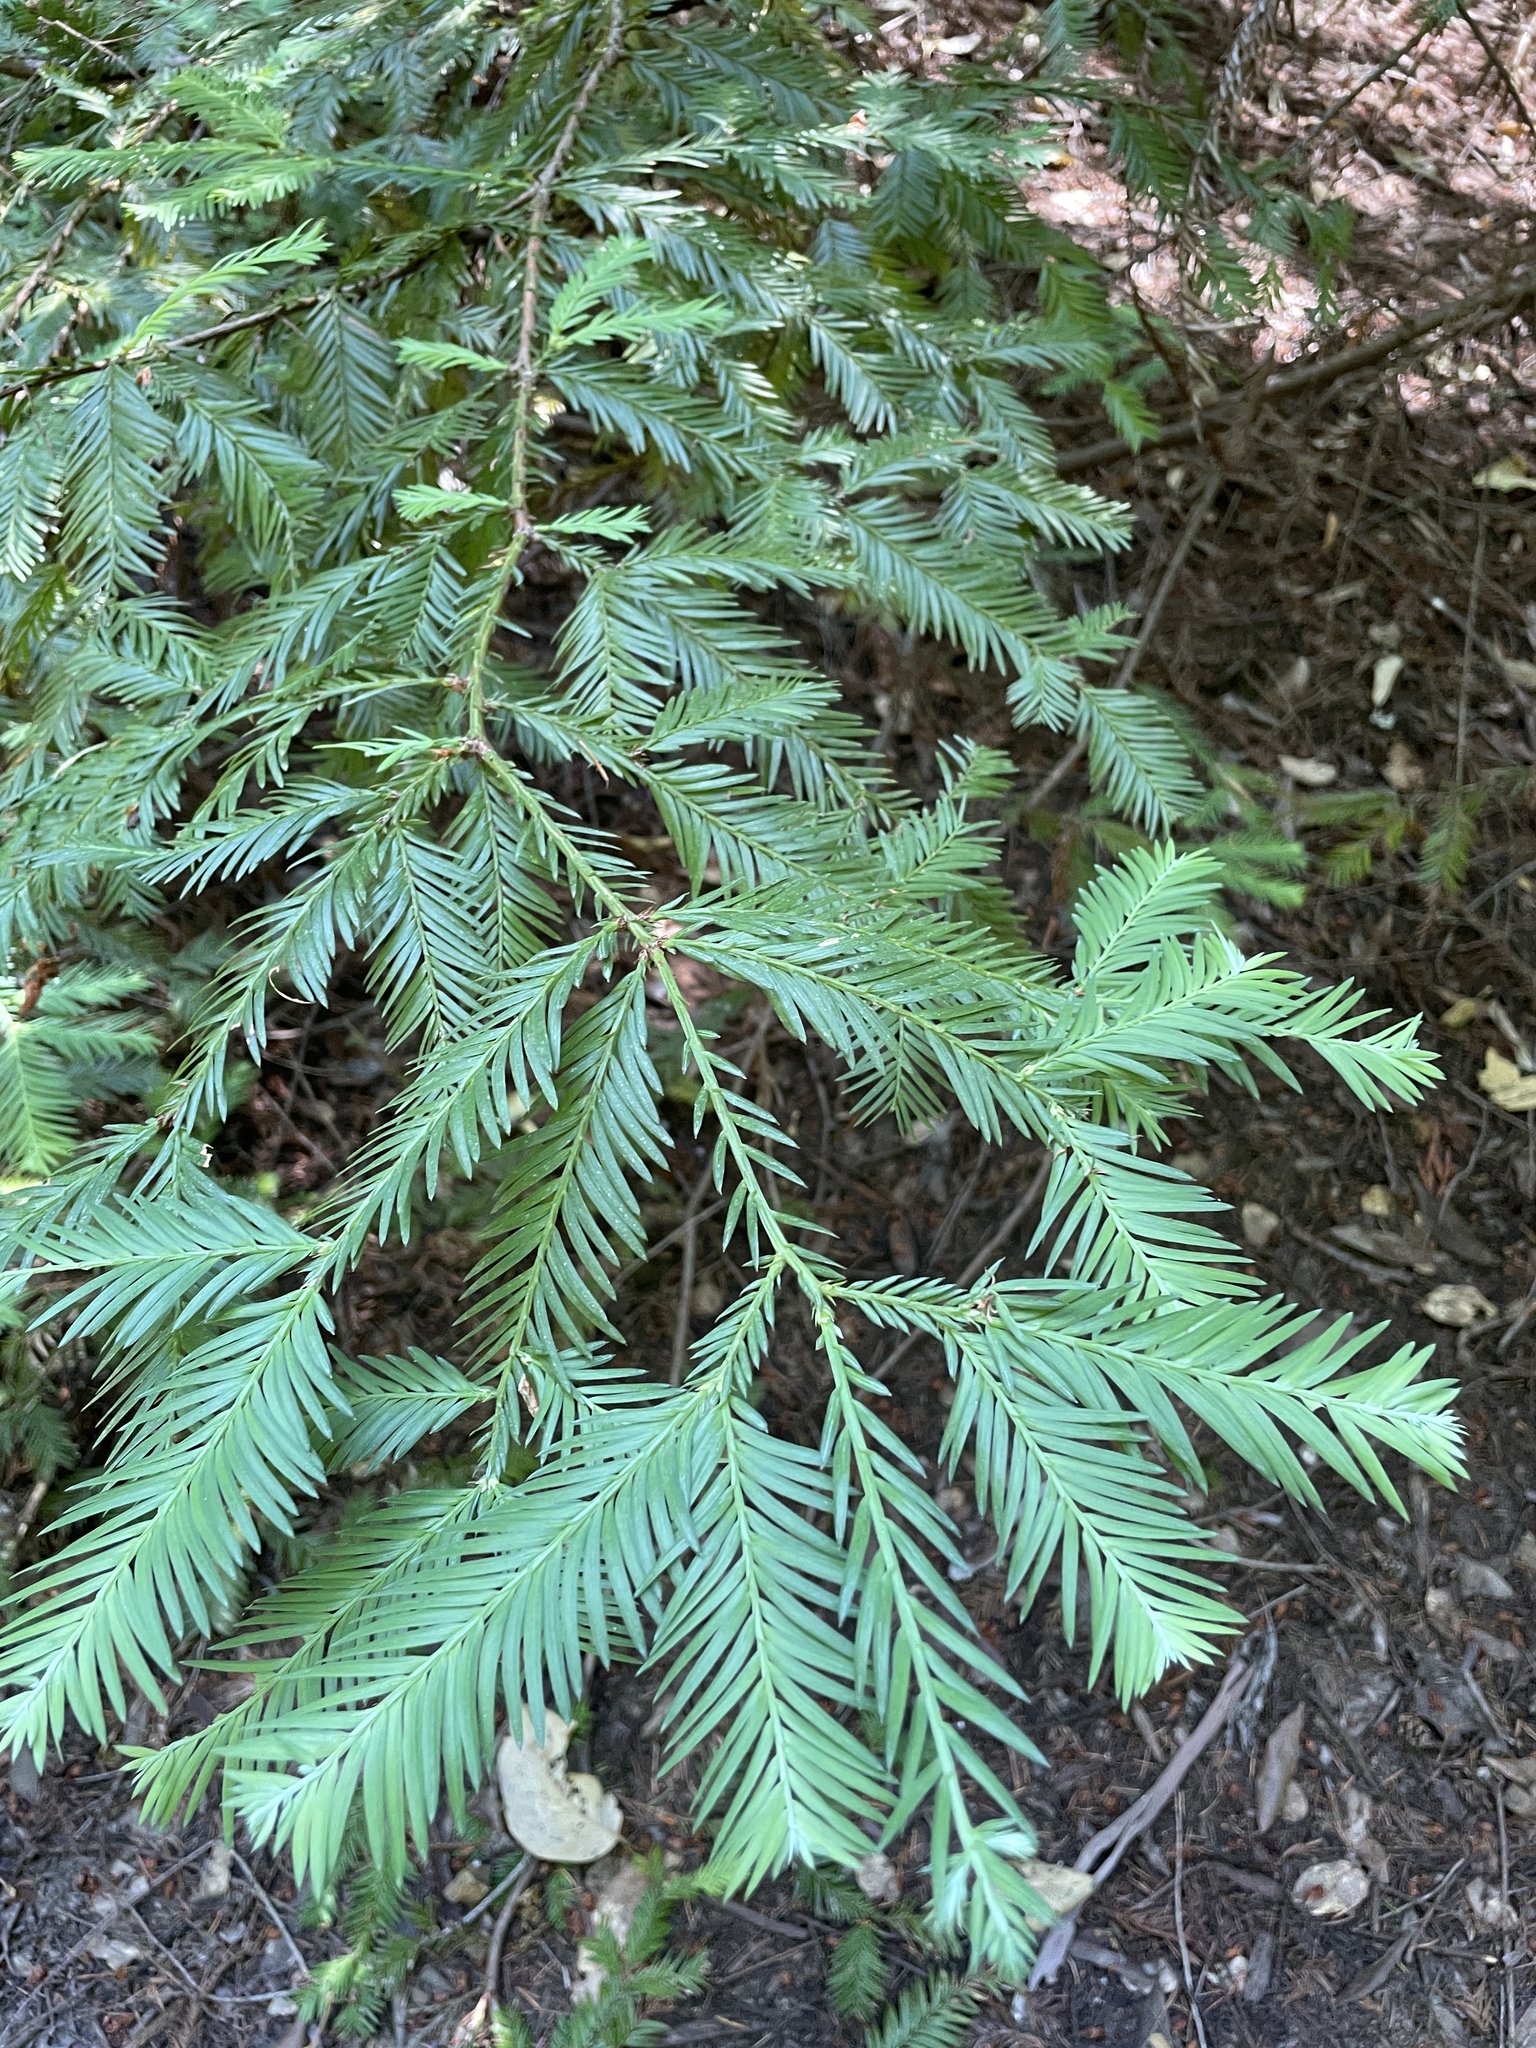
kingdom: Plantae
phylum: Tracheophyta
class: Pinopsida
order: Pinales
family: Cupressaceae
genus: Sequoia
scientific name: Sequoia sempervirens
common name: Coast redwood
